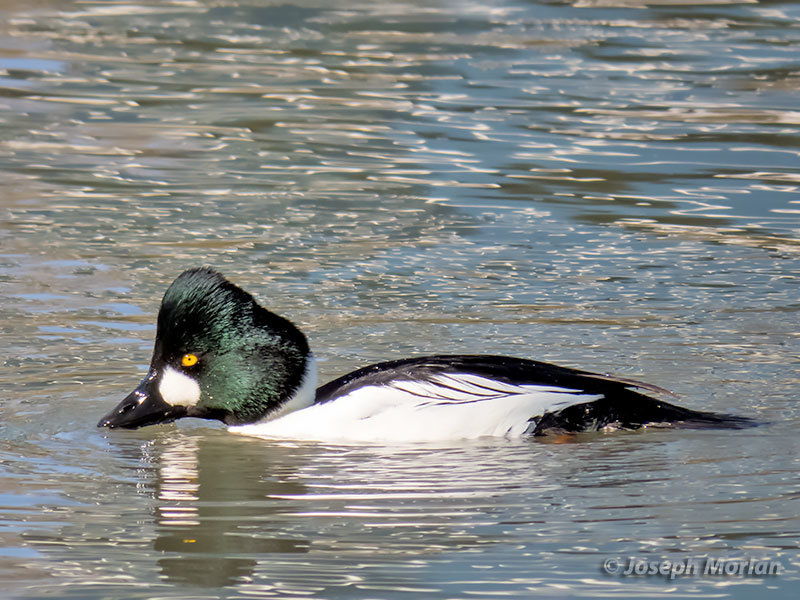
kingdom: Animalia
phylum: Chordata
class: Aves
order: Anseriformes
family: Anatidae
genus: Bucephala
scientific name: Bucephala clangula
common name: Common goldeneye
